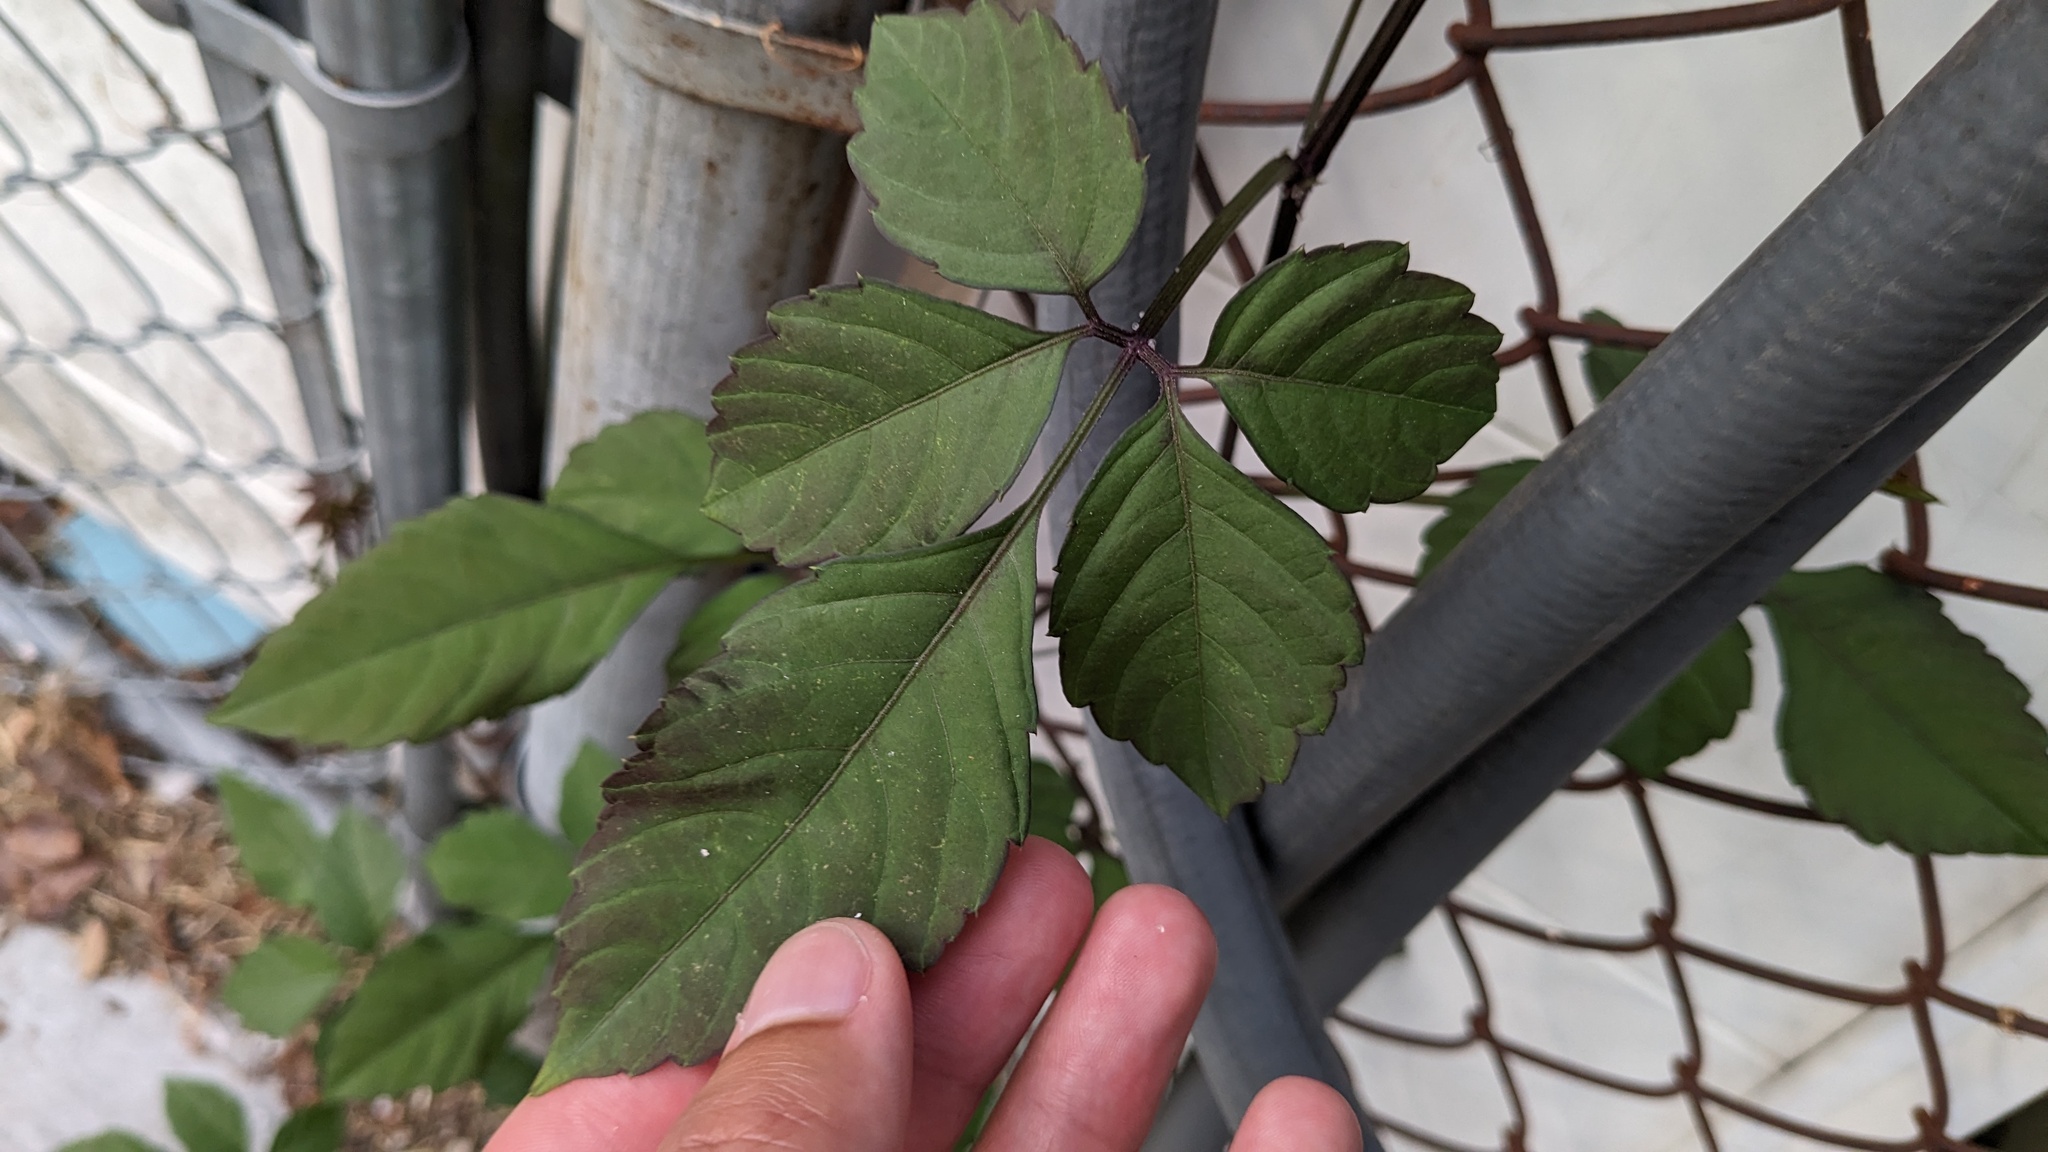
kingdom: Plantae
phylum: Tracheophyta
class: Magnoliopsida
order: Vitales
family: Vitaceae
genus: Causonis
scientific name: Causonis japonica
